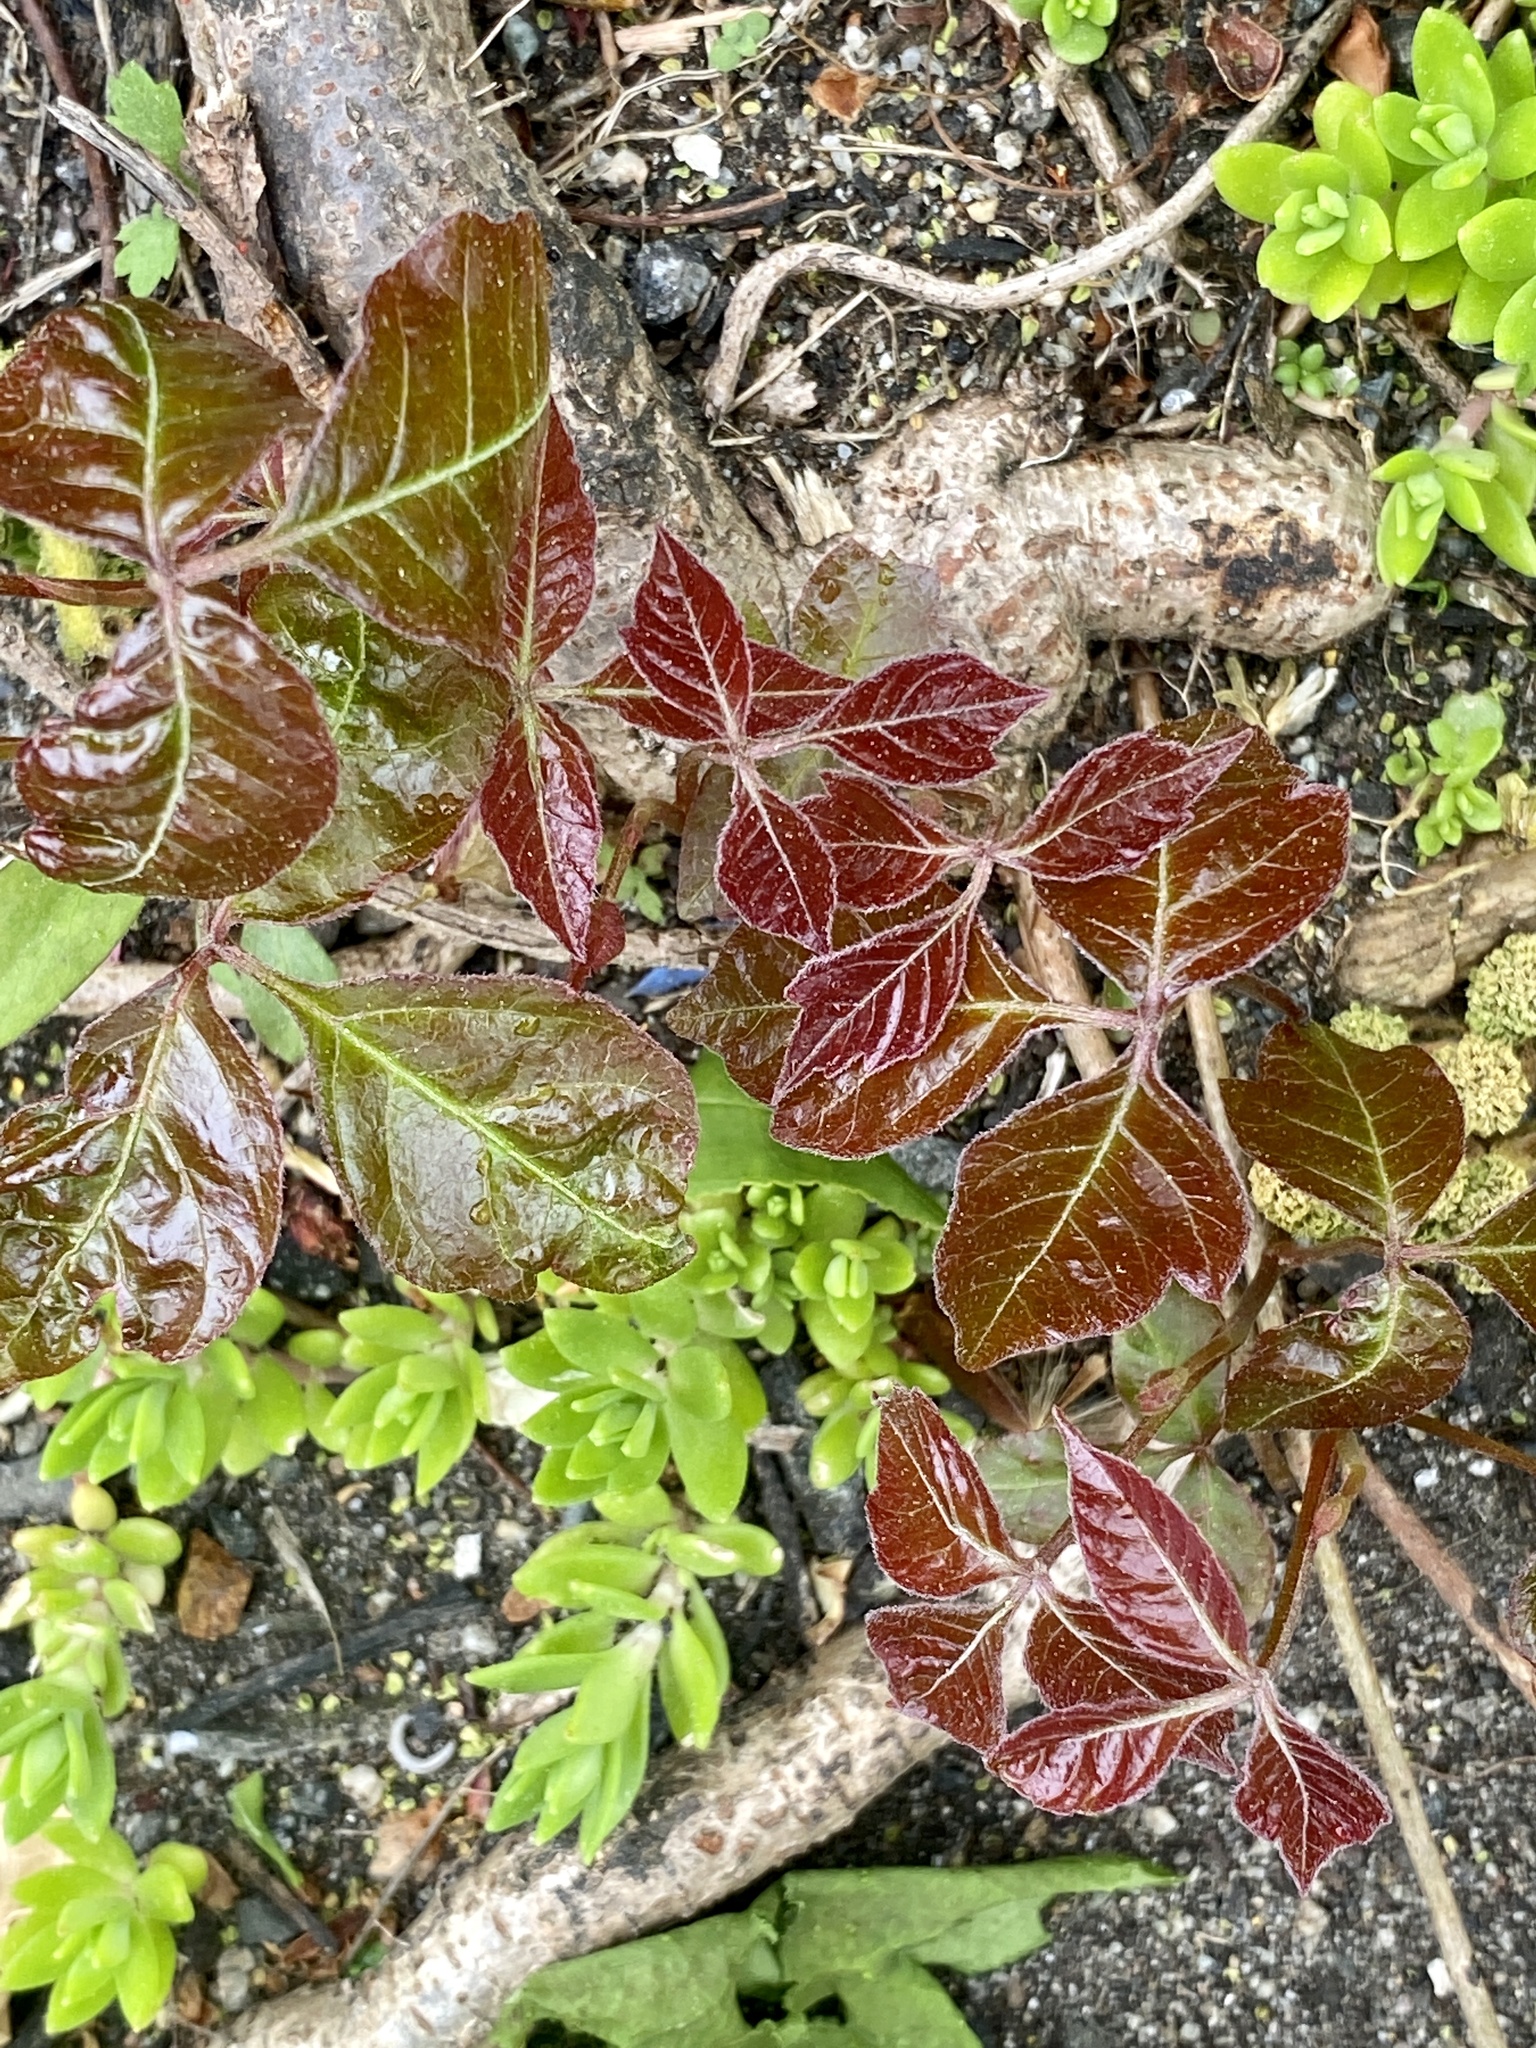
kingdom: Plantae
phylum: Tracheophyta
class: Magnoliopsida
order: Sapindales
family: Anacardiaceae
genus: Toxicodendron
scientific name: Toxicodendron radicans
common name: Poison ivy
